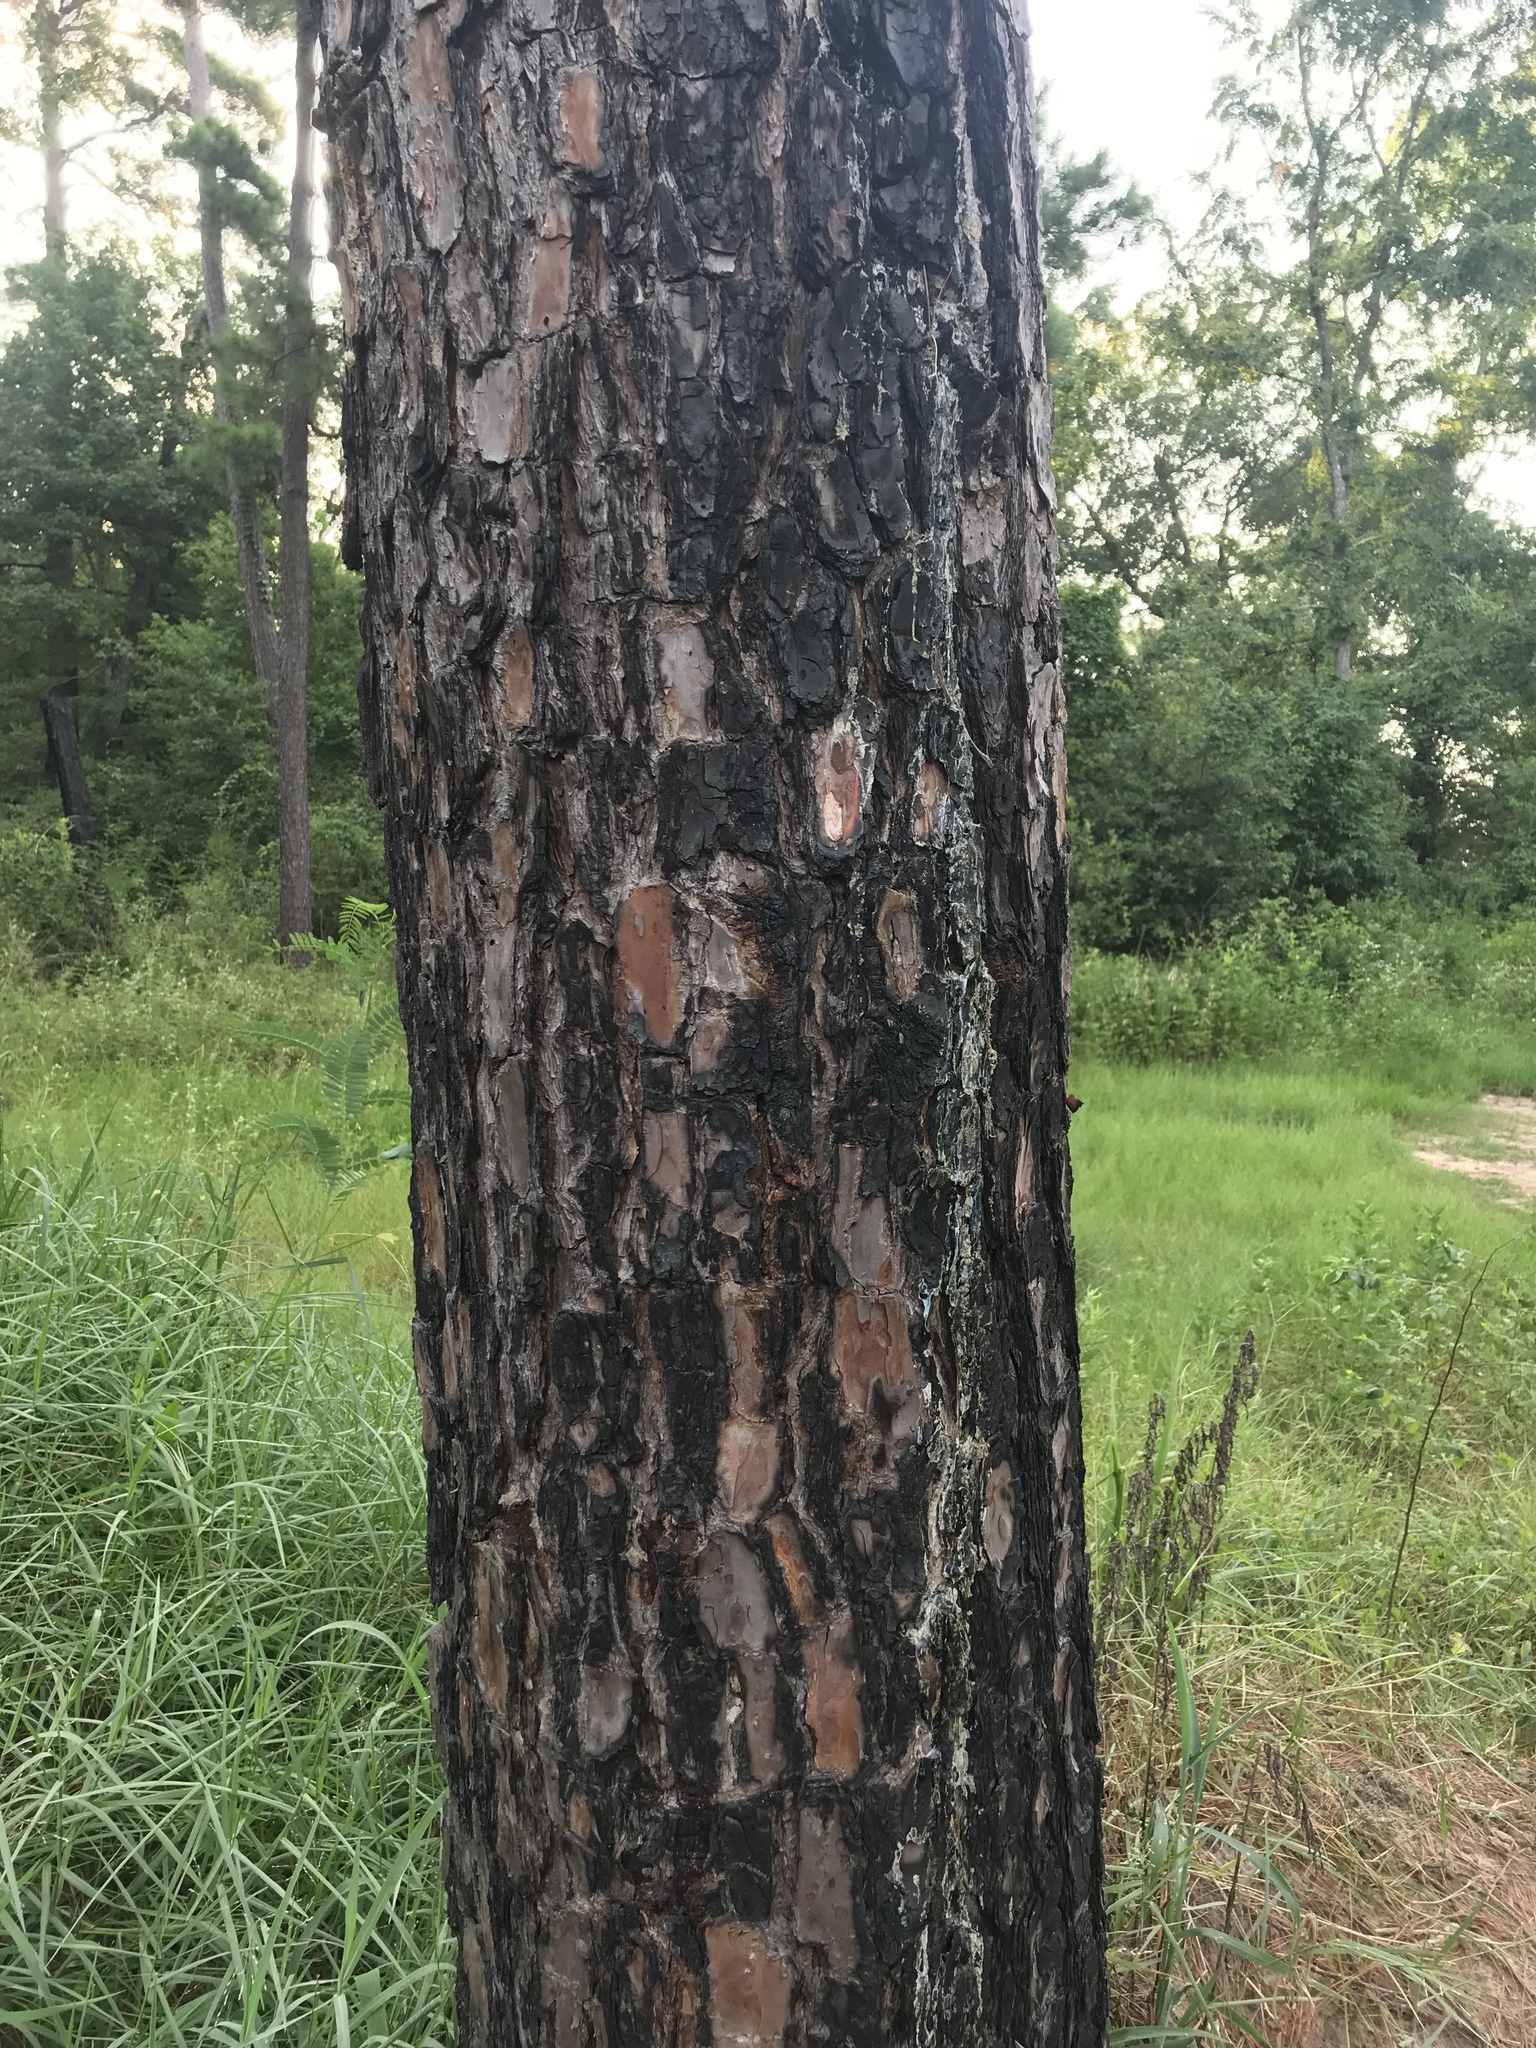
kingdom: Plantae
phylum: Tracheophyta
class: Pinopsida
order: Pinales
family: Pinaceae
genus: Pinus
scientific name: Pinus taeda
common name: Loblolly pine
